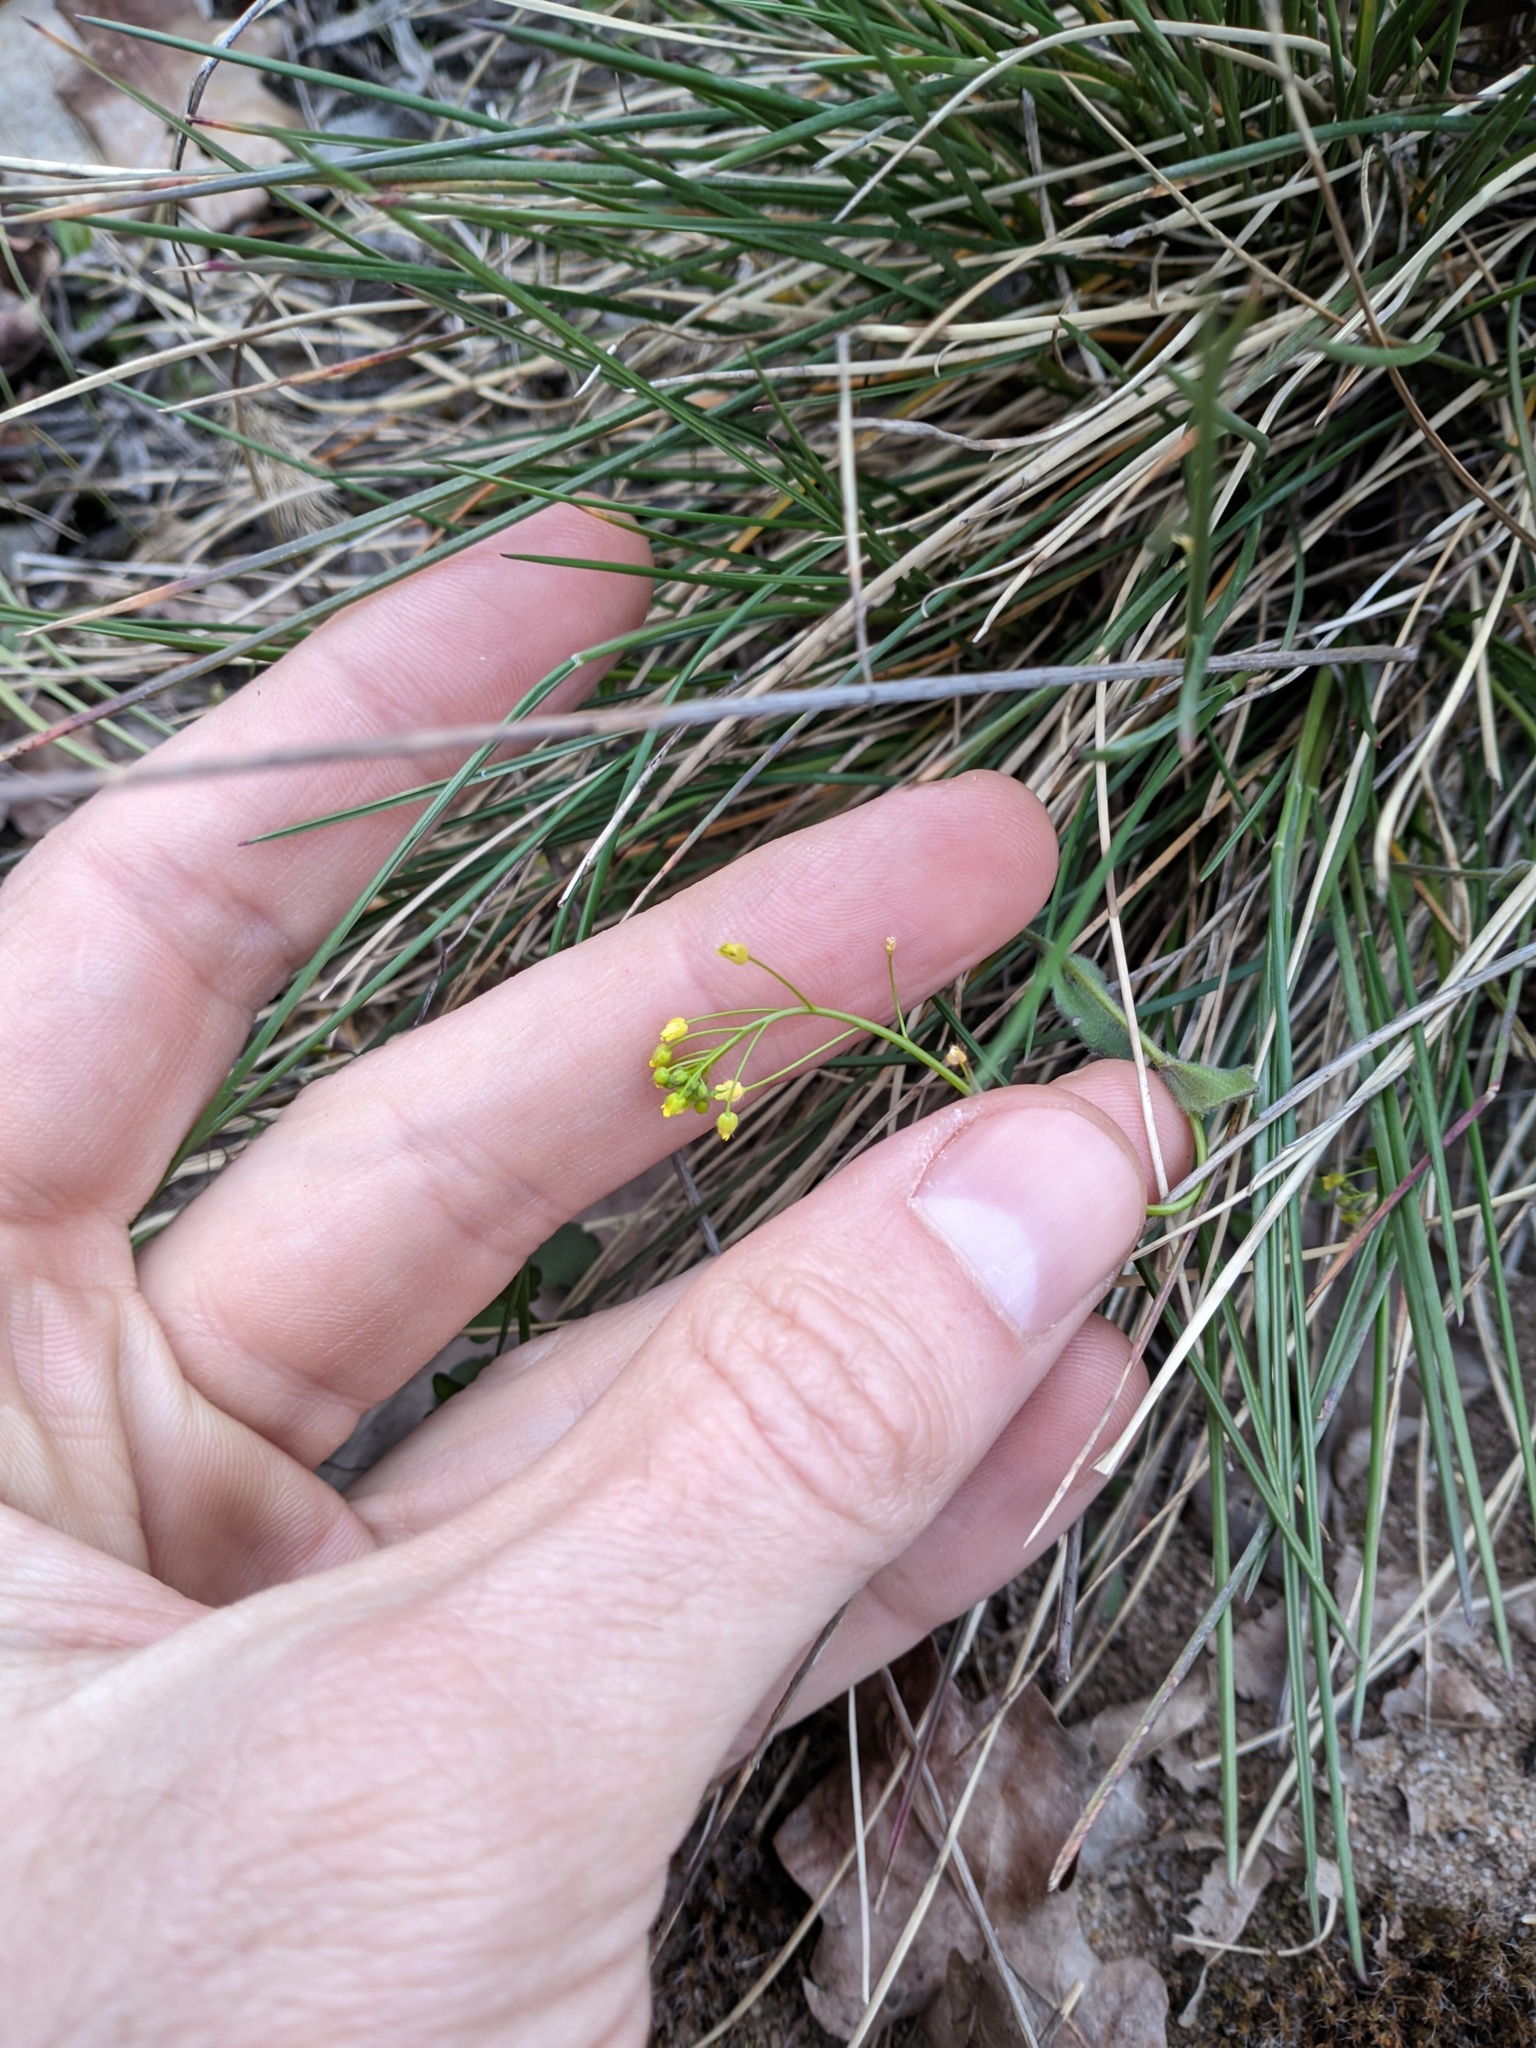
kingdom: Plantae
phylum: Tracheophyta
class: Magnoliopsida
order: Brassicales
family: Brassicaceae
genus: Draba
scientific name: Draba nemorosa
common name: Wood whitlow-grass
